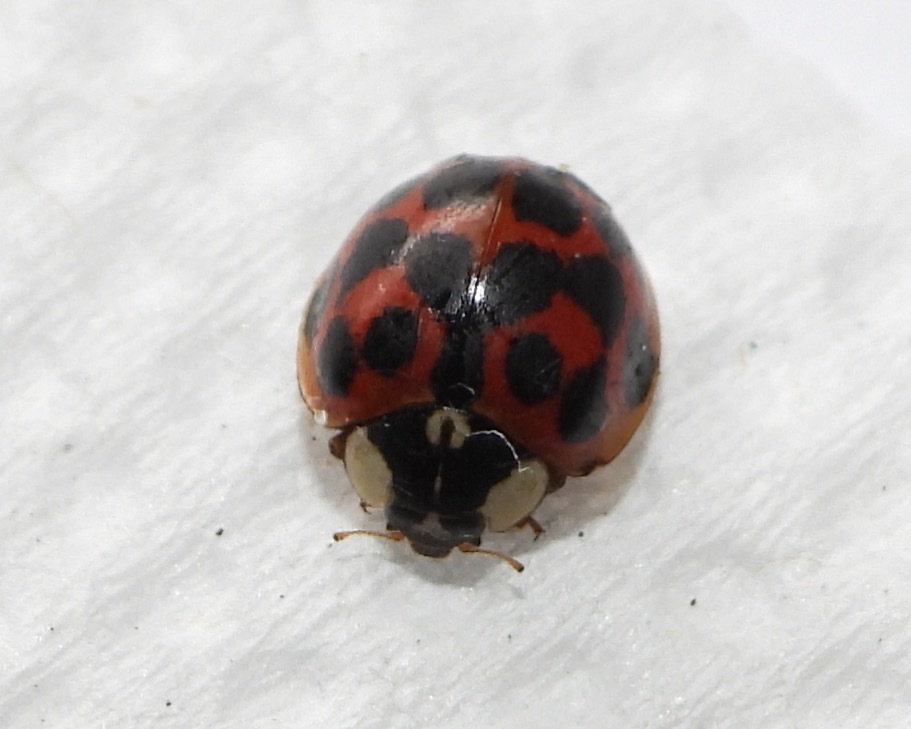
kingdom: Animalia
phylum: Arthropoda
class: Insecta
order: Coleoptera
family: Coccinellidae
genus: Harmonia
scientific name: Harmonia axyridis
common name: Harlequin ladybird
